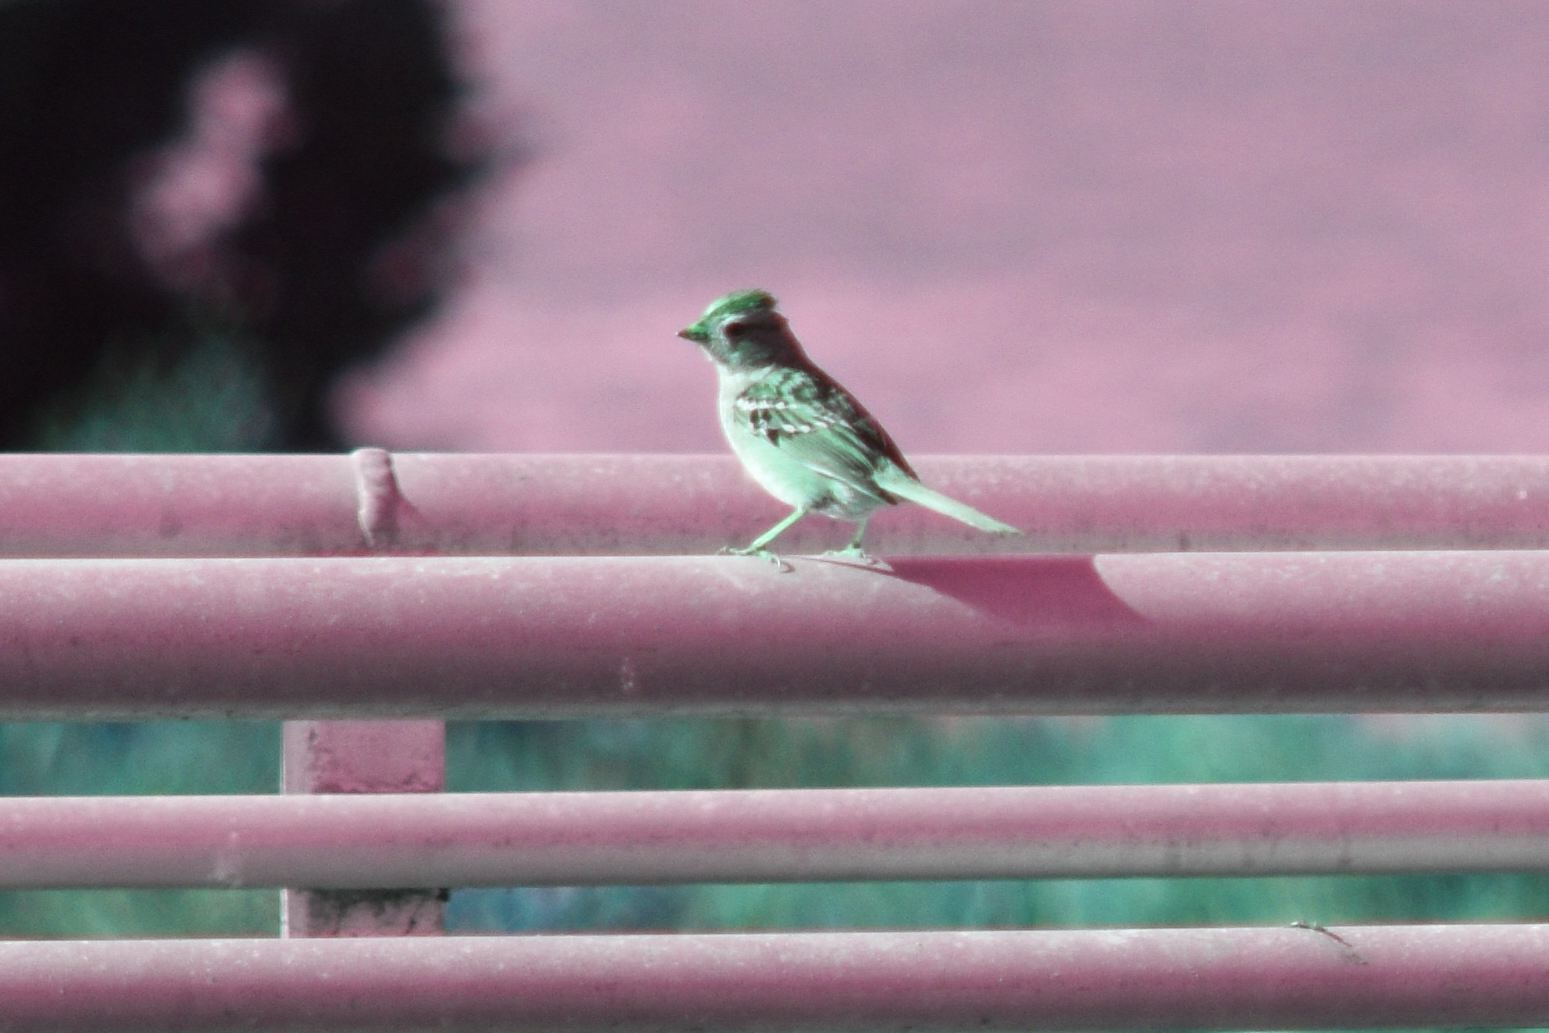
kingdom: Animalia
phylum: Chordata
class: Aves
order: Passeriformes
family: Passerellidae
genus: Zonotrichia
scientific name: Zonotrichia leucophrys
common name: White-crowned sparrow
